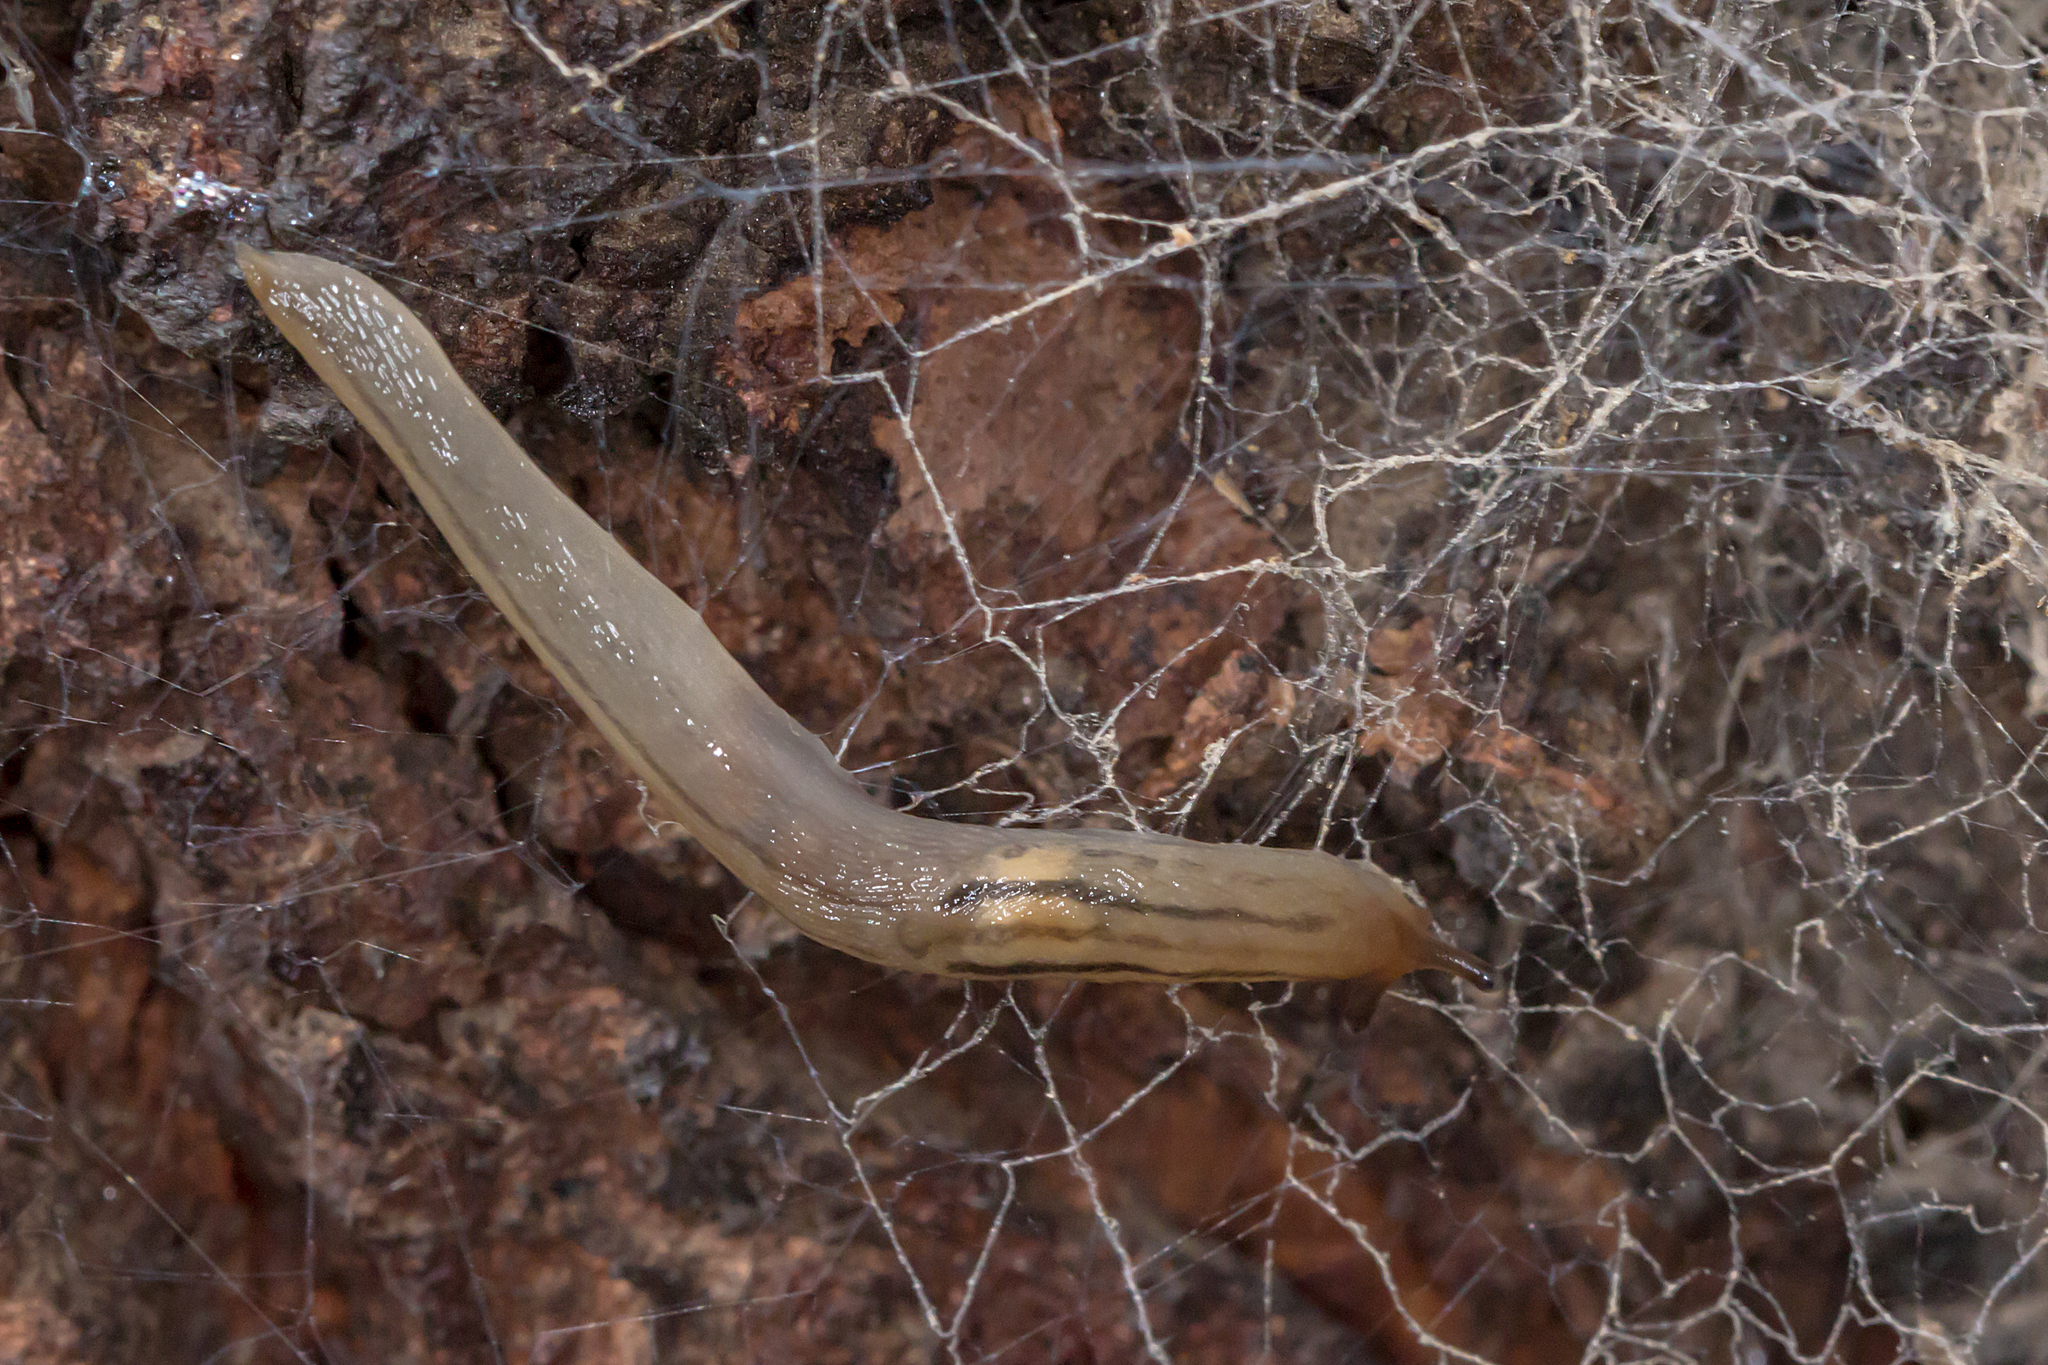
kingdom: Animalia
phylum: Mollusca
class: Gastropoda
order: Stylommatophora
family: Limacidae
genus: Ambigolimax
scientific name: Ambigolimax
